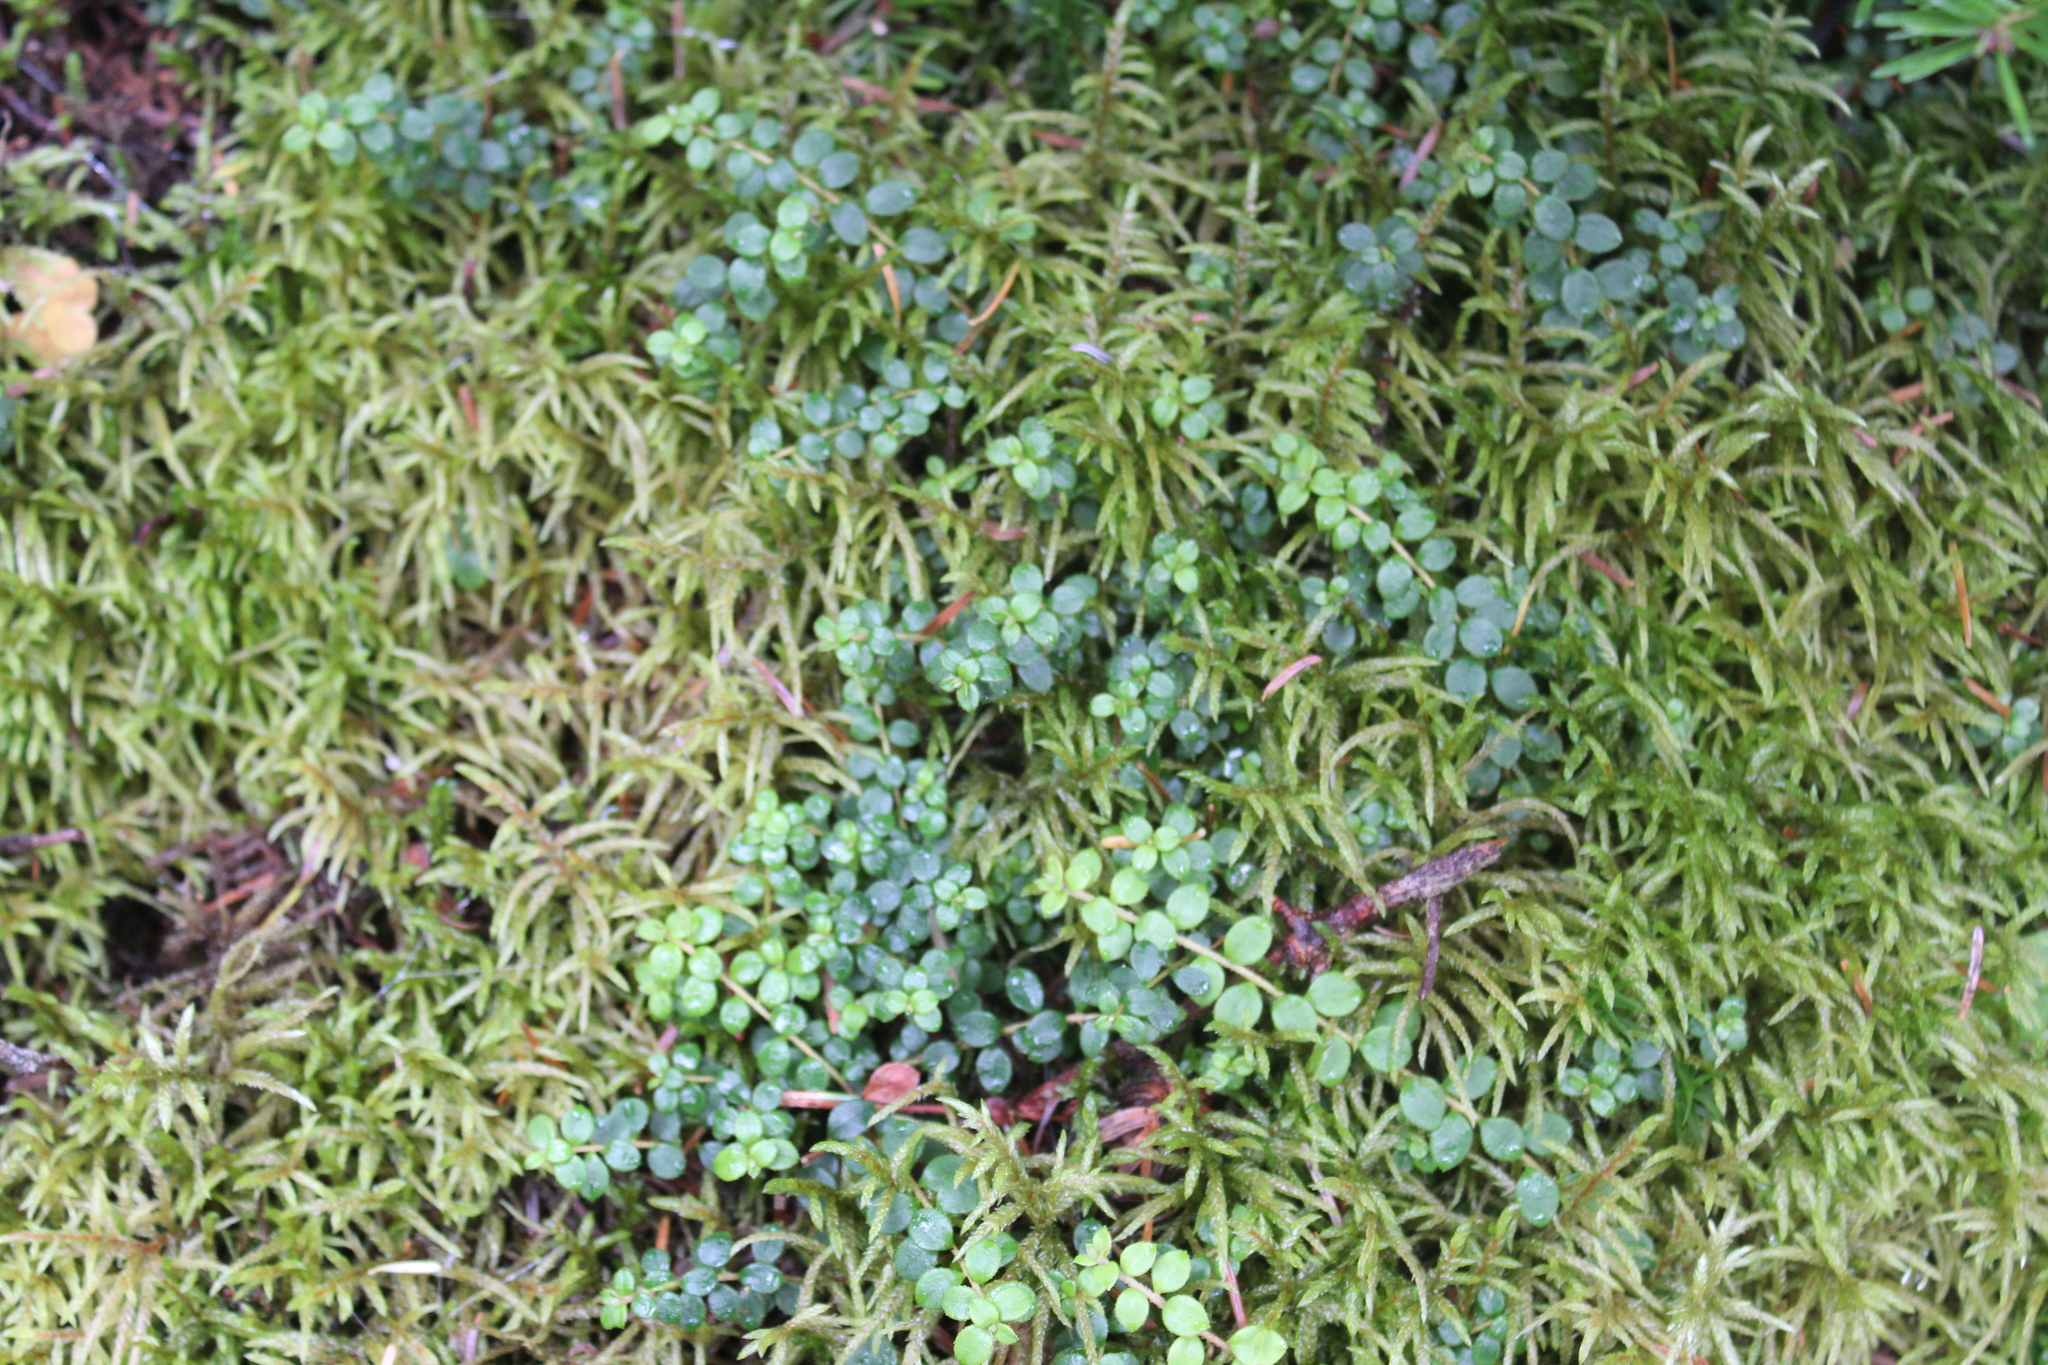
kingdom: Plantae
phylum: Tracheophyta
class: Magnoliopsida
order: Ericales
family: Ericaceae
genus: Gaultheria
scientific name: Gaultheria hispidula
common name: Cancer wintergreen
